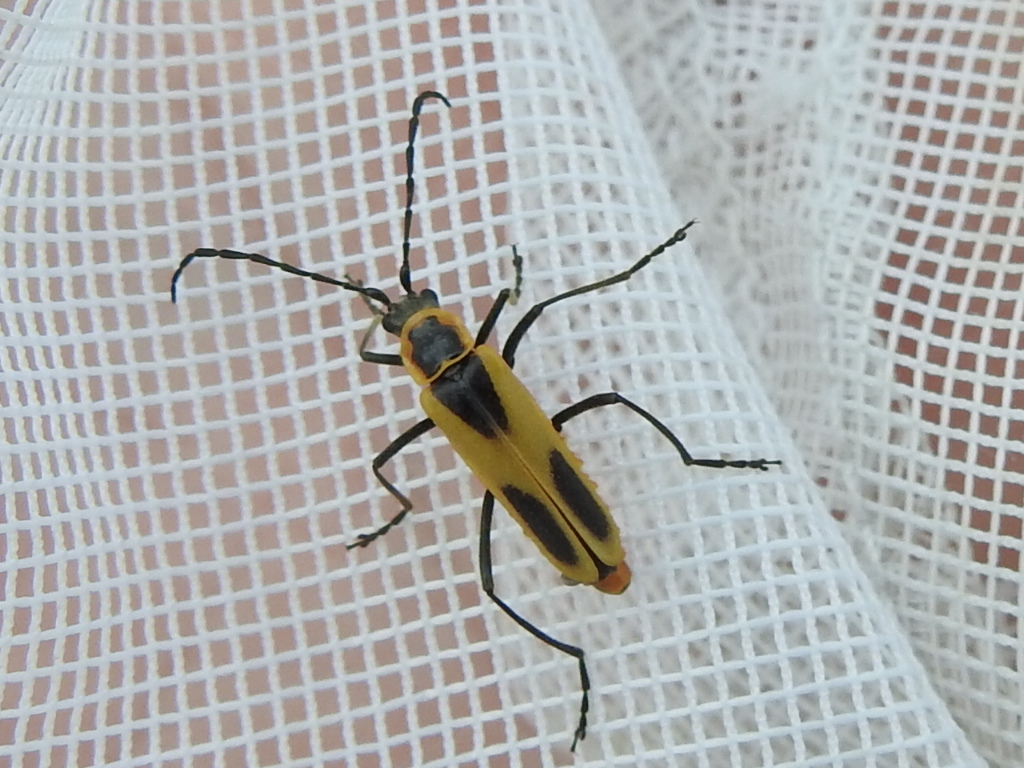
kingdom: Animalia
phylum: Arthropoda
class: Insecta
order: Coleoptera
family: Cantharidae
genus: Chauliognathus
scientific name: Chauliognathus scutellaris
